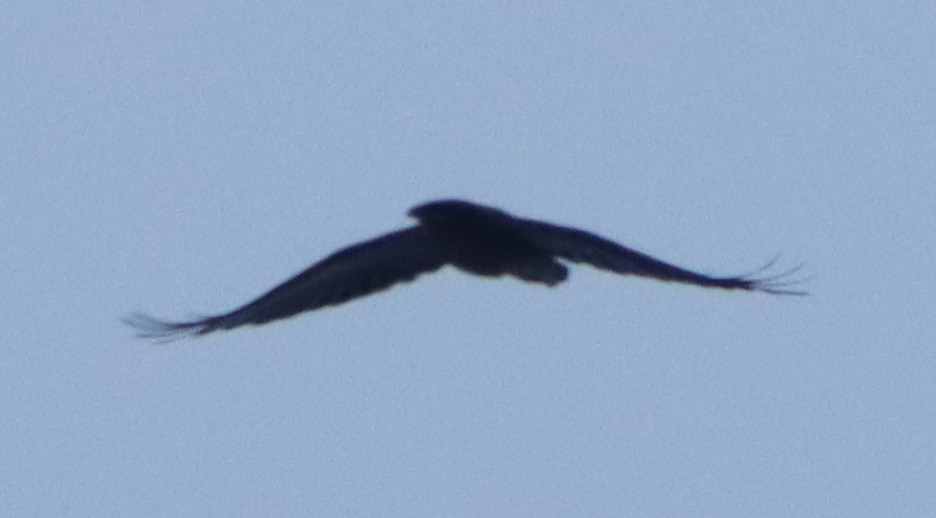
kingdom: Animalia
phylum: Chordata
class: Aves
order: Passeriformes
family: Corvidae
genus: Corvus
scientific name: Corvus corax
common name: Common raven
